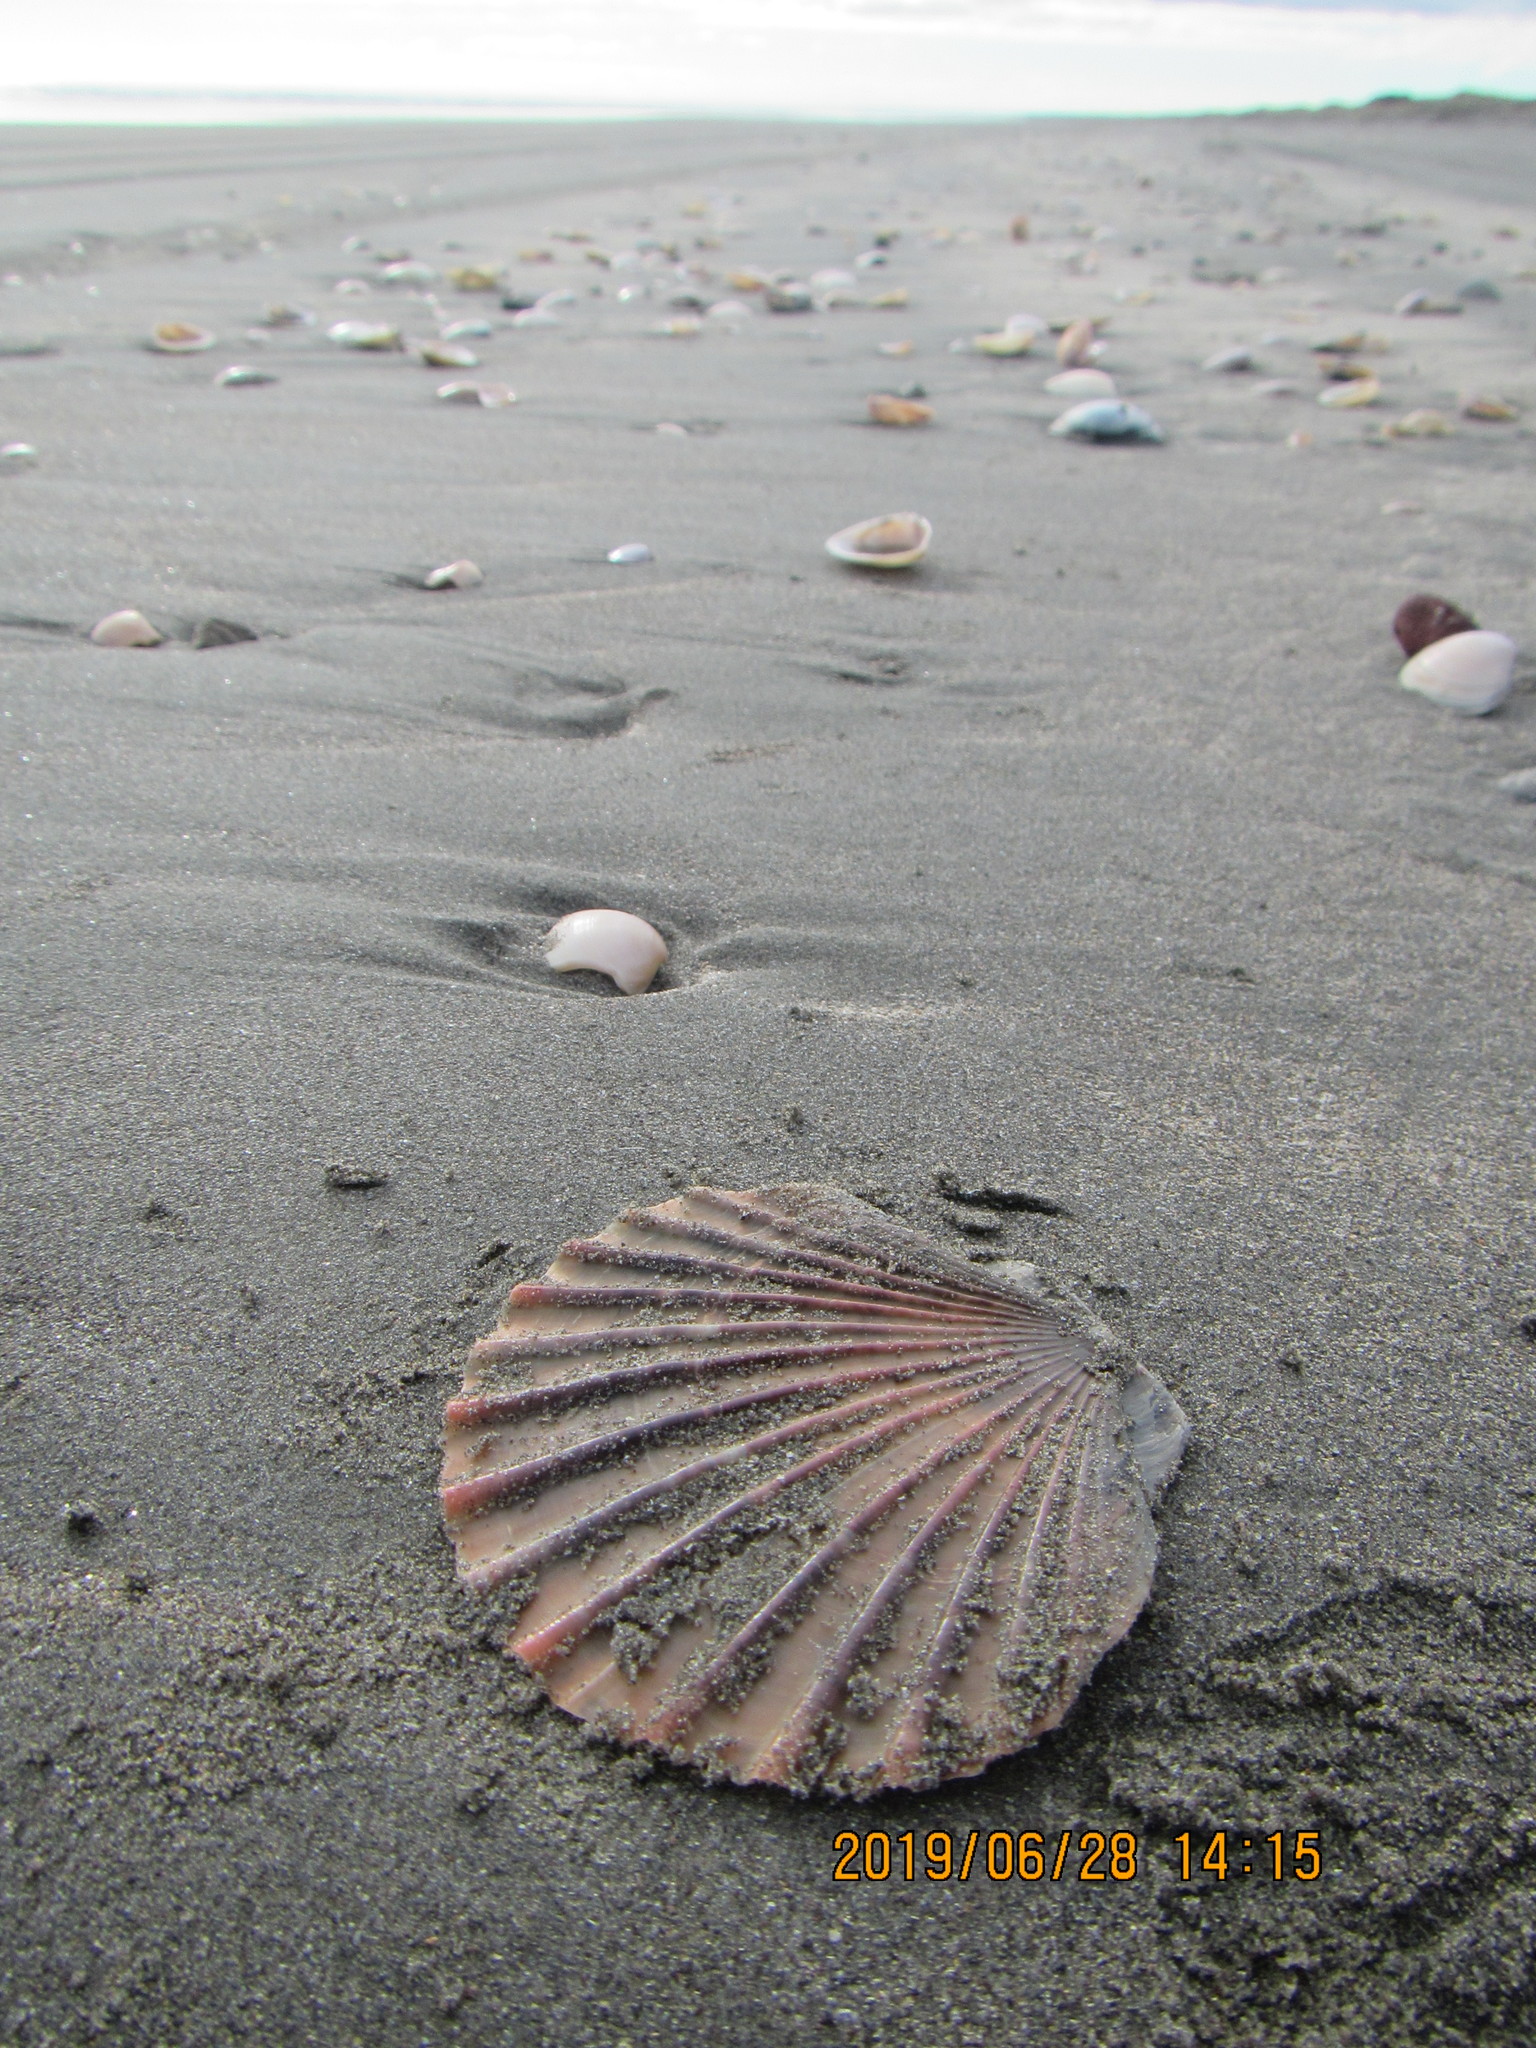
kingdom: Animalia
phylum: Mollusca
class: Bivalvia
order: Pectinida
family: Pectinidae
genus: Pecten
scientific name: Pecten novaezelandiae
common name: New zealand scallop
